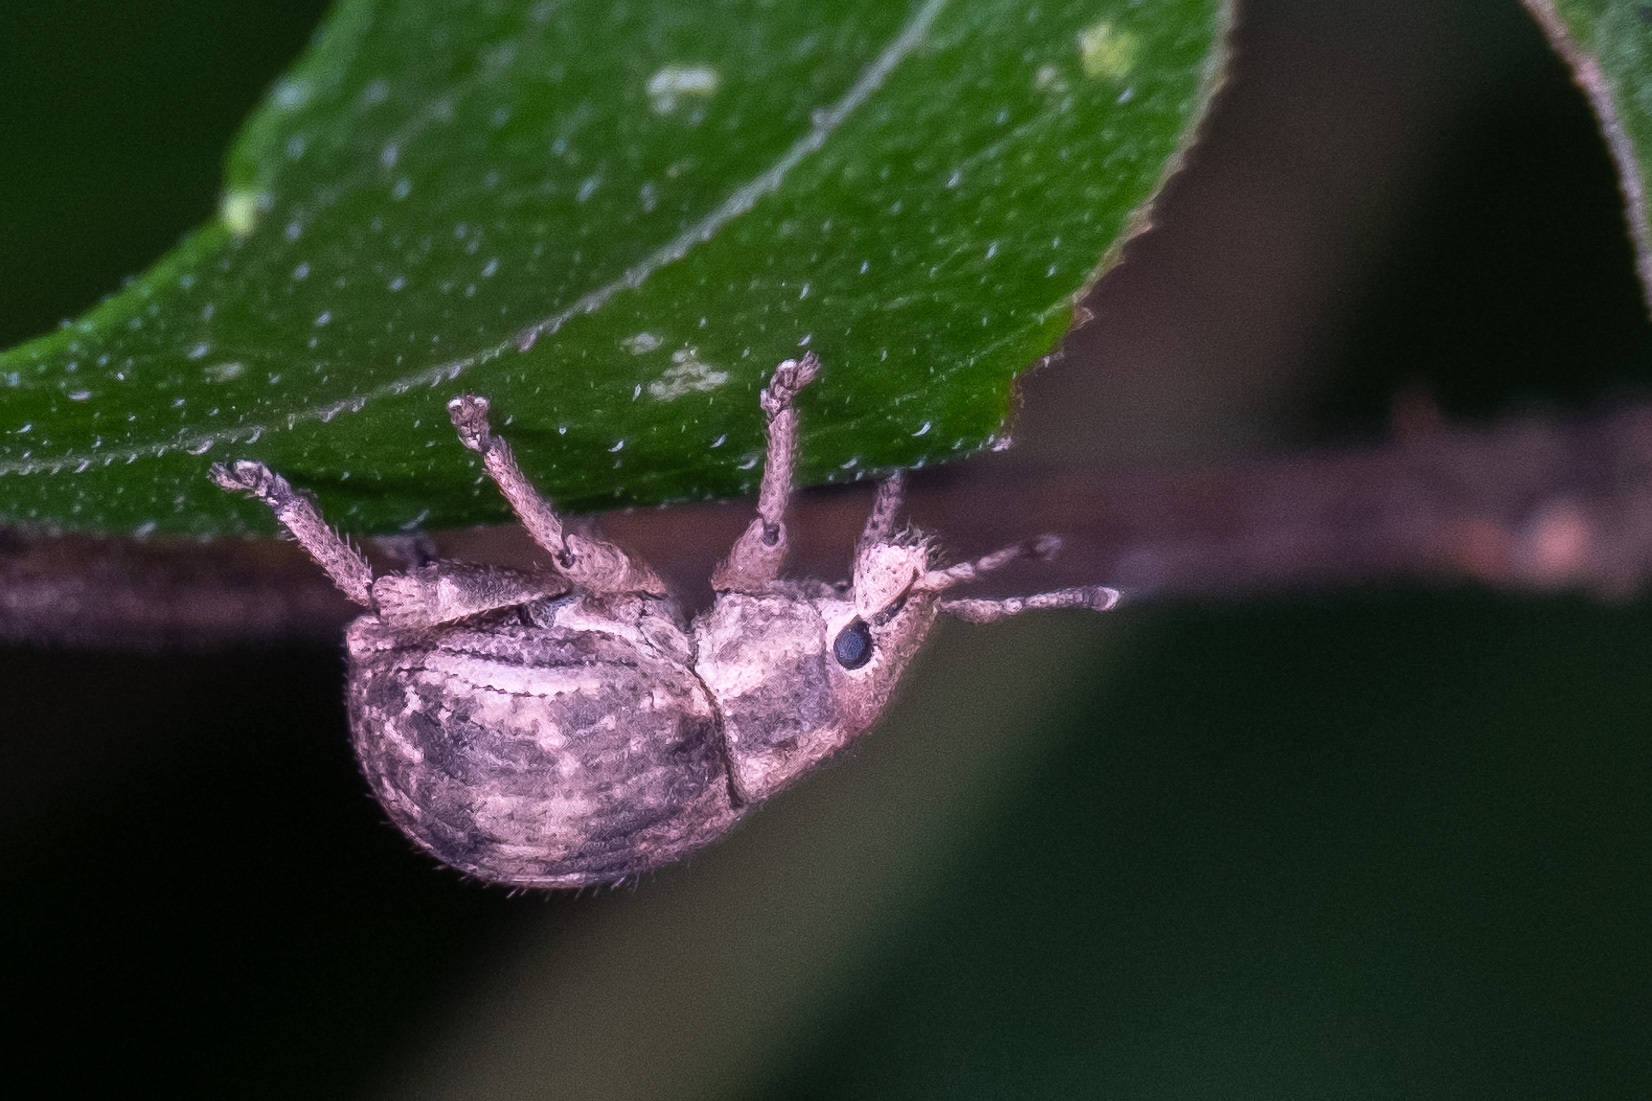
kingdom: Animalia
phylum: Arthropoda
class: Insecta
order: Coleoptera
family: Curculionidae
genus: Pseudocneorhinus
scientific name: Pseudocneorhinus bifasciatus
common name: Two-banded japanese weevil
